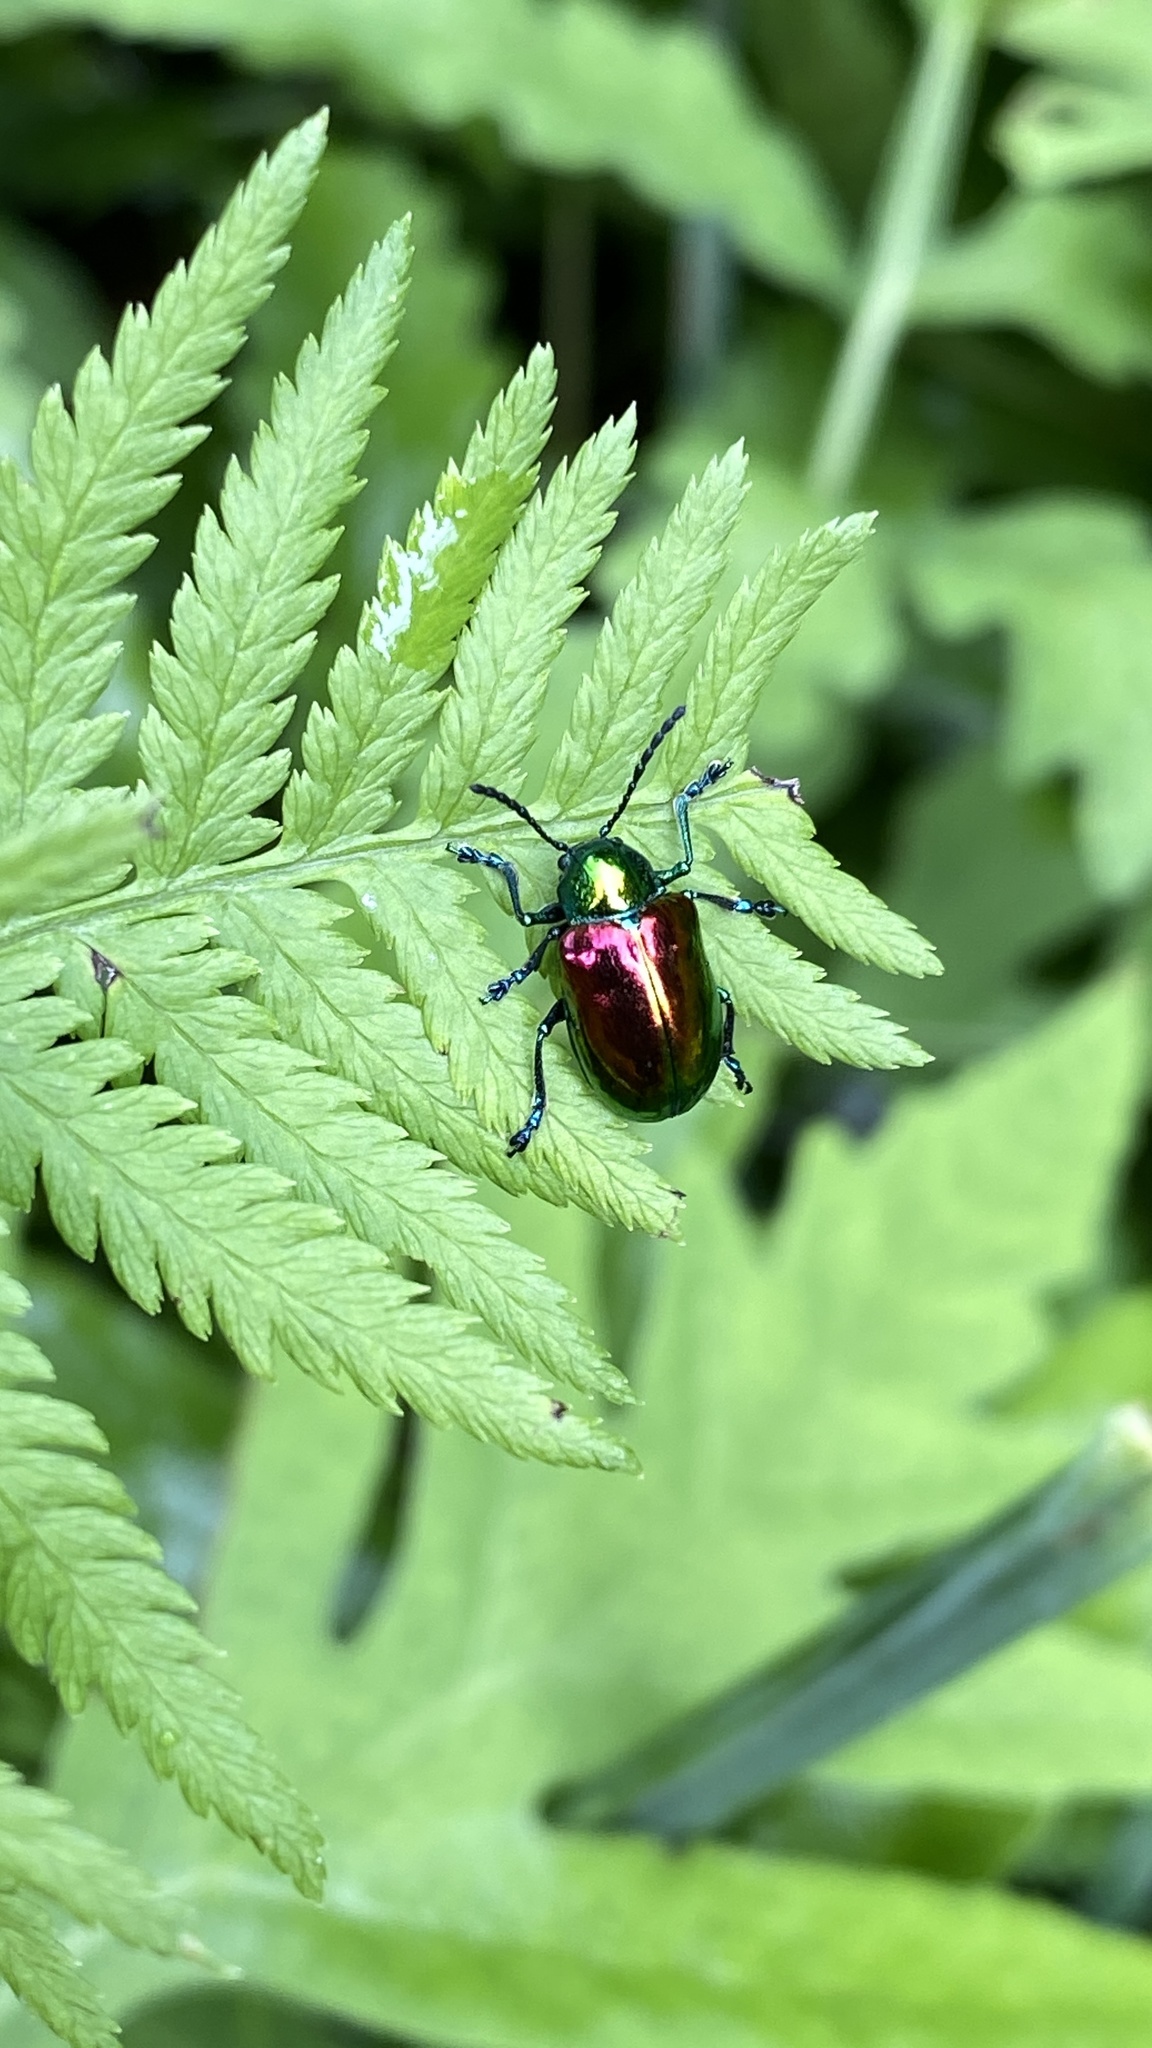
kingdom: Animalia
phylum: Arthropoda
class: Insecta
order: Coleoptera
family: Chrysomelidae
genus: Chrysochus
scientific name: Chrysochus auratus
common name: Dogbane leaf beetle
